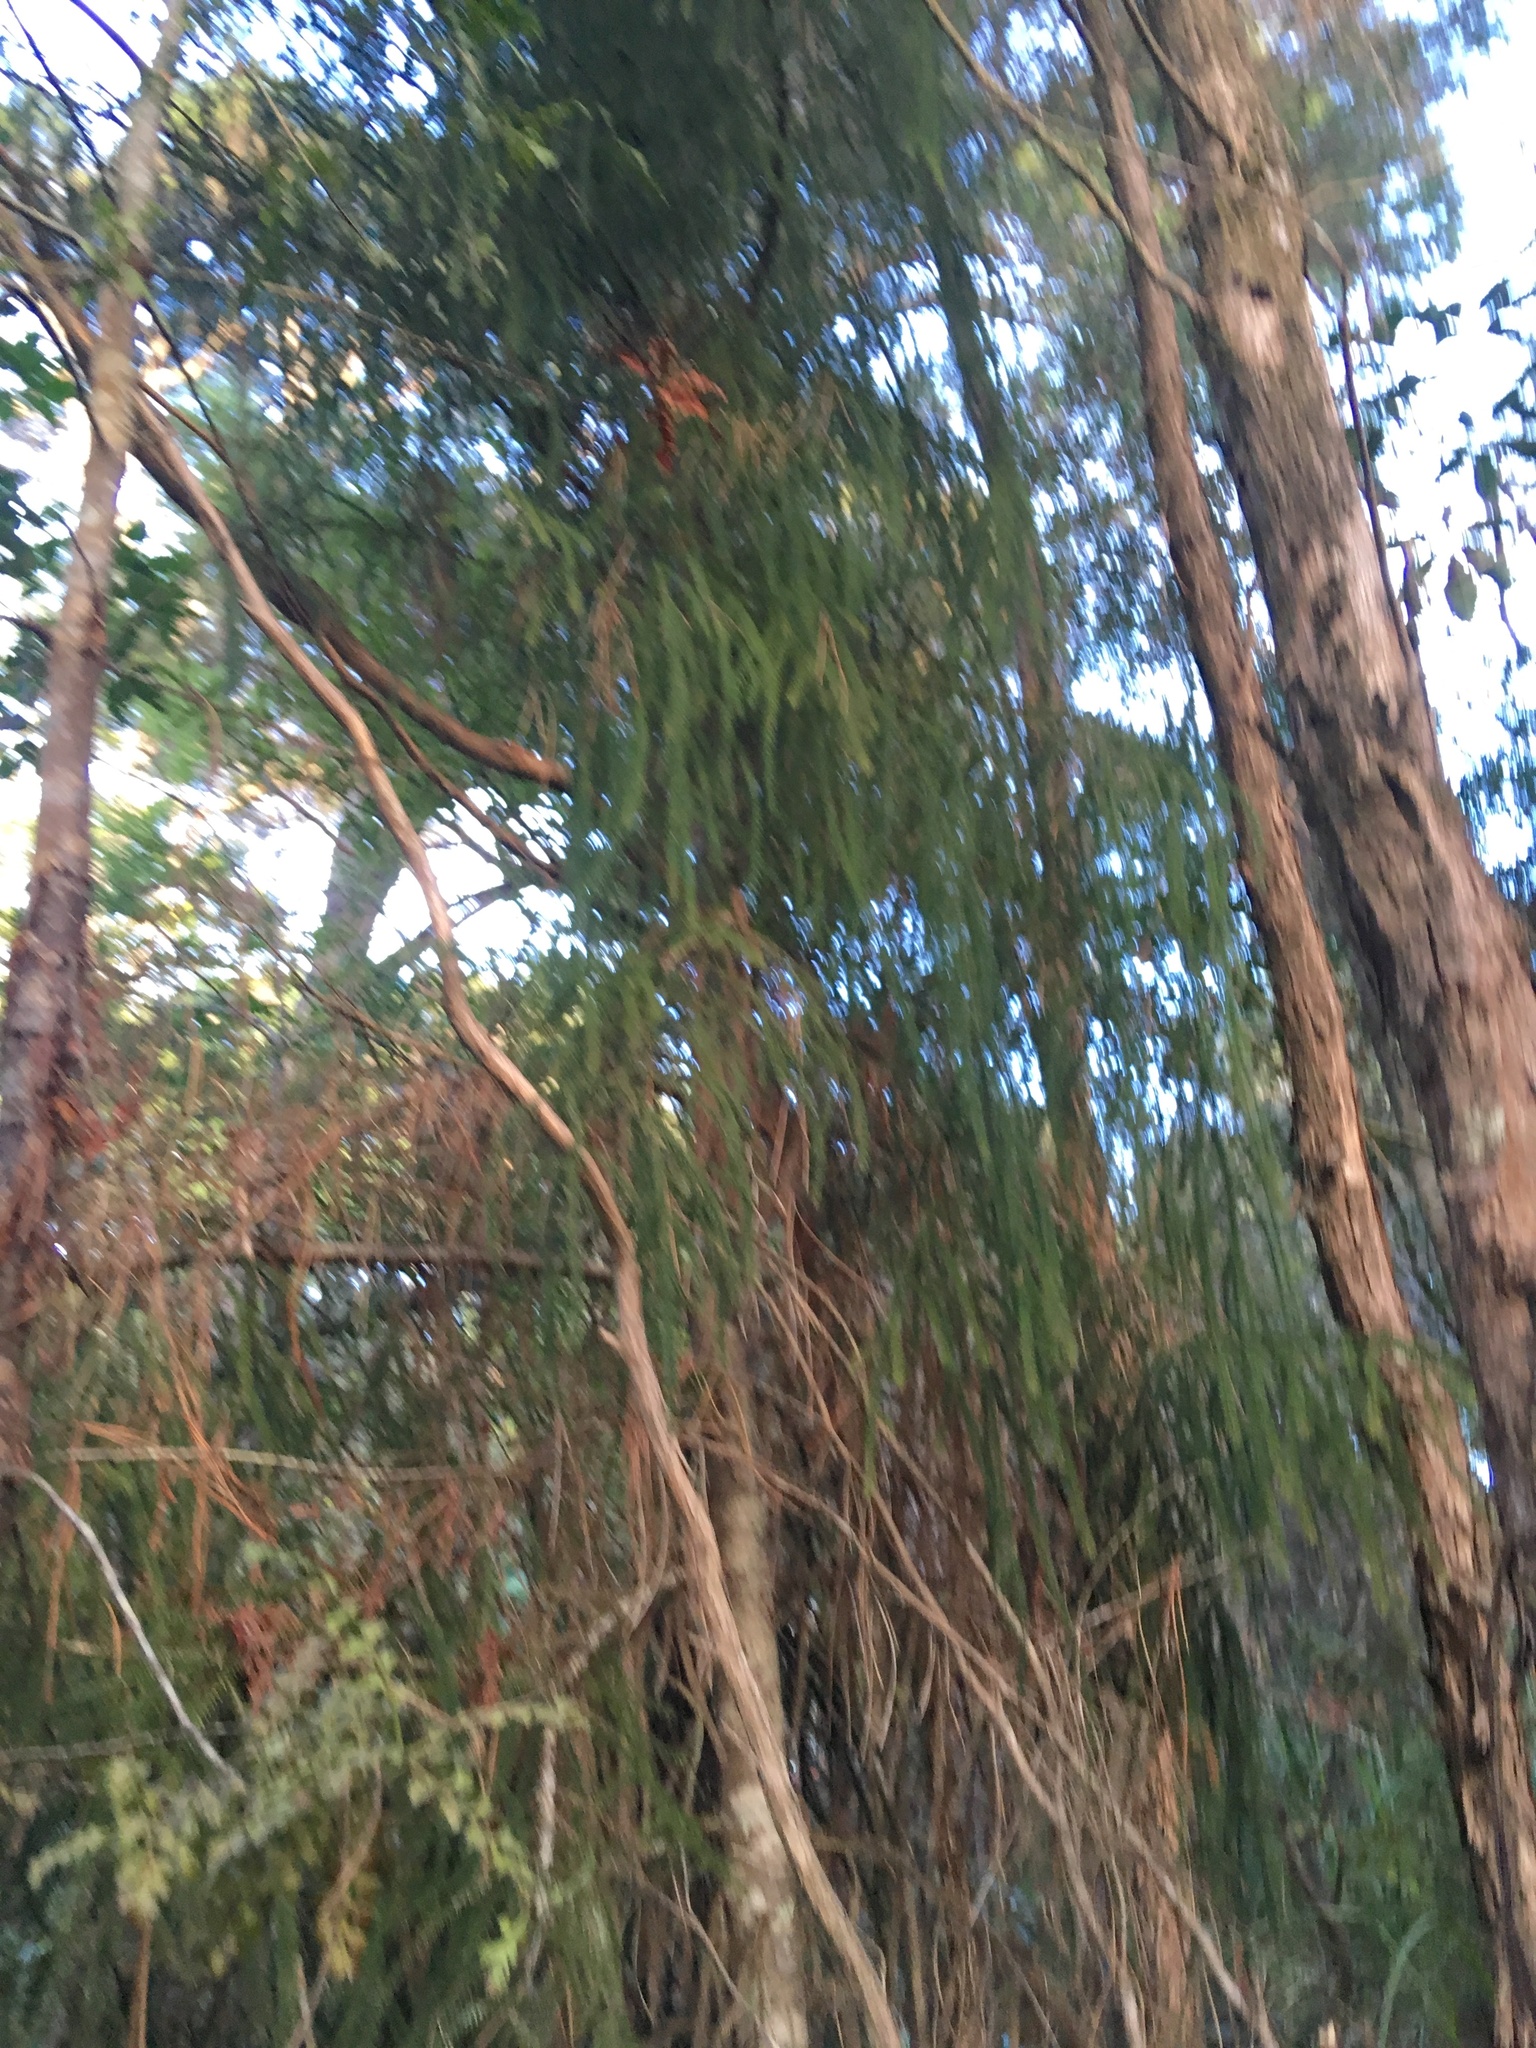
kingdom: Plantae
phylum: Tracheophyta
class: Pinopsida
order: Pinales
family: Phyllocladaceae
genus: Phyllocladus
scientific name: Phyllocladus trichomanoides
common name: Celery pine
